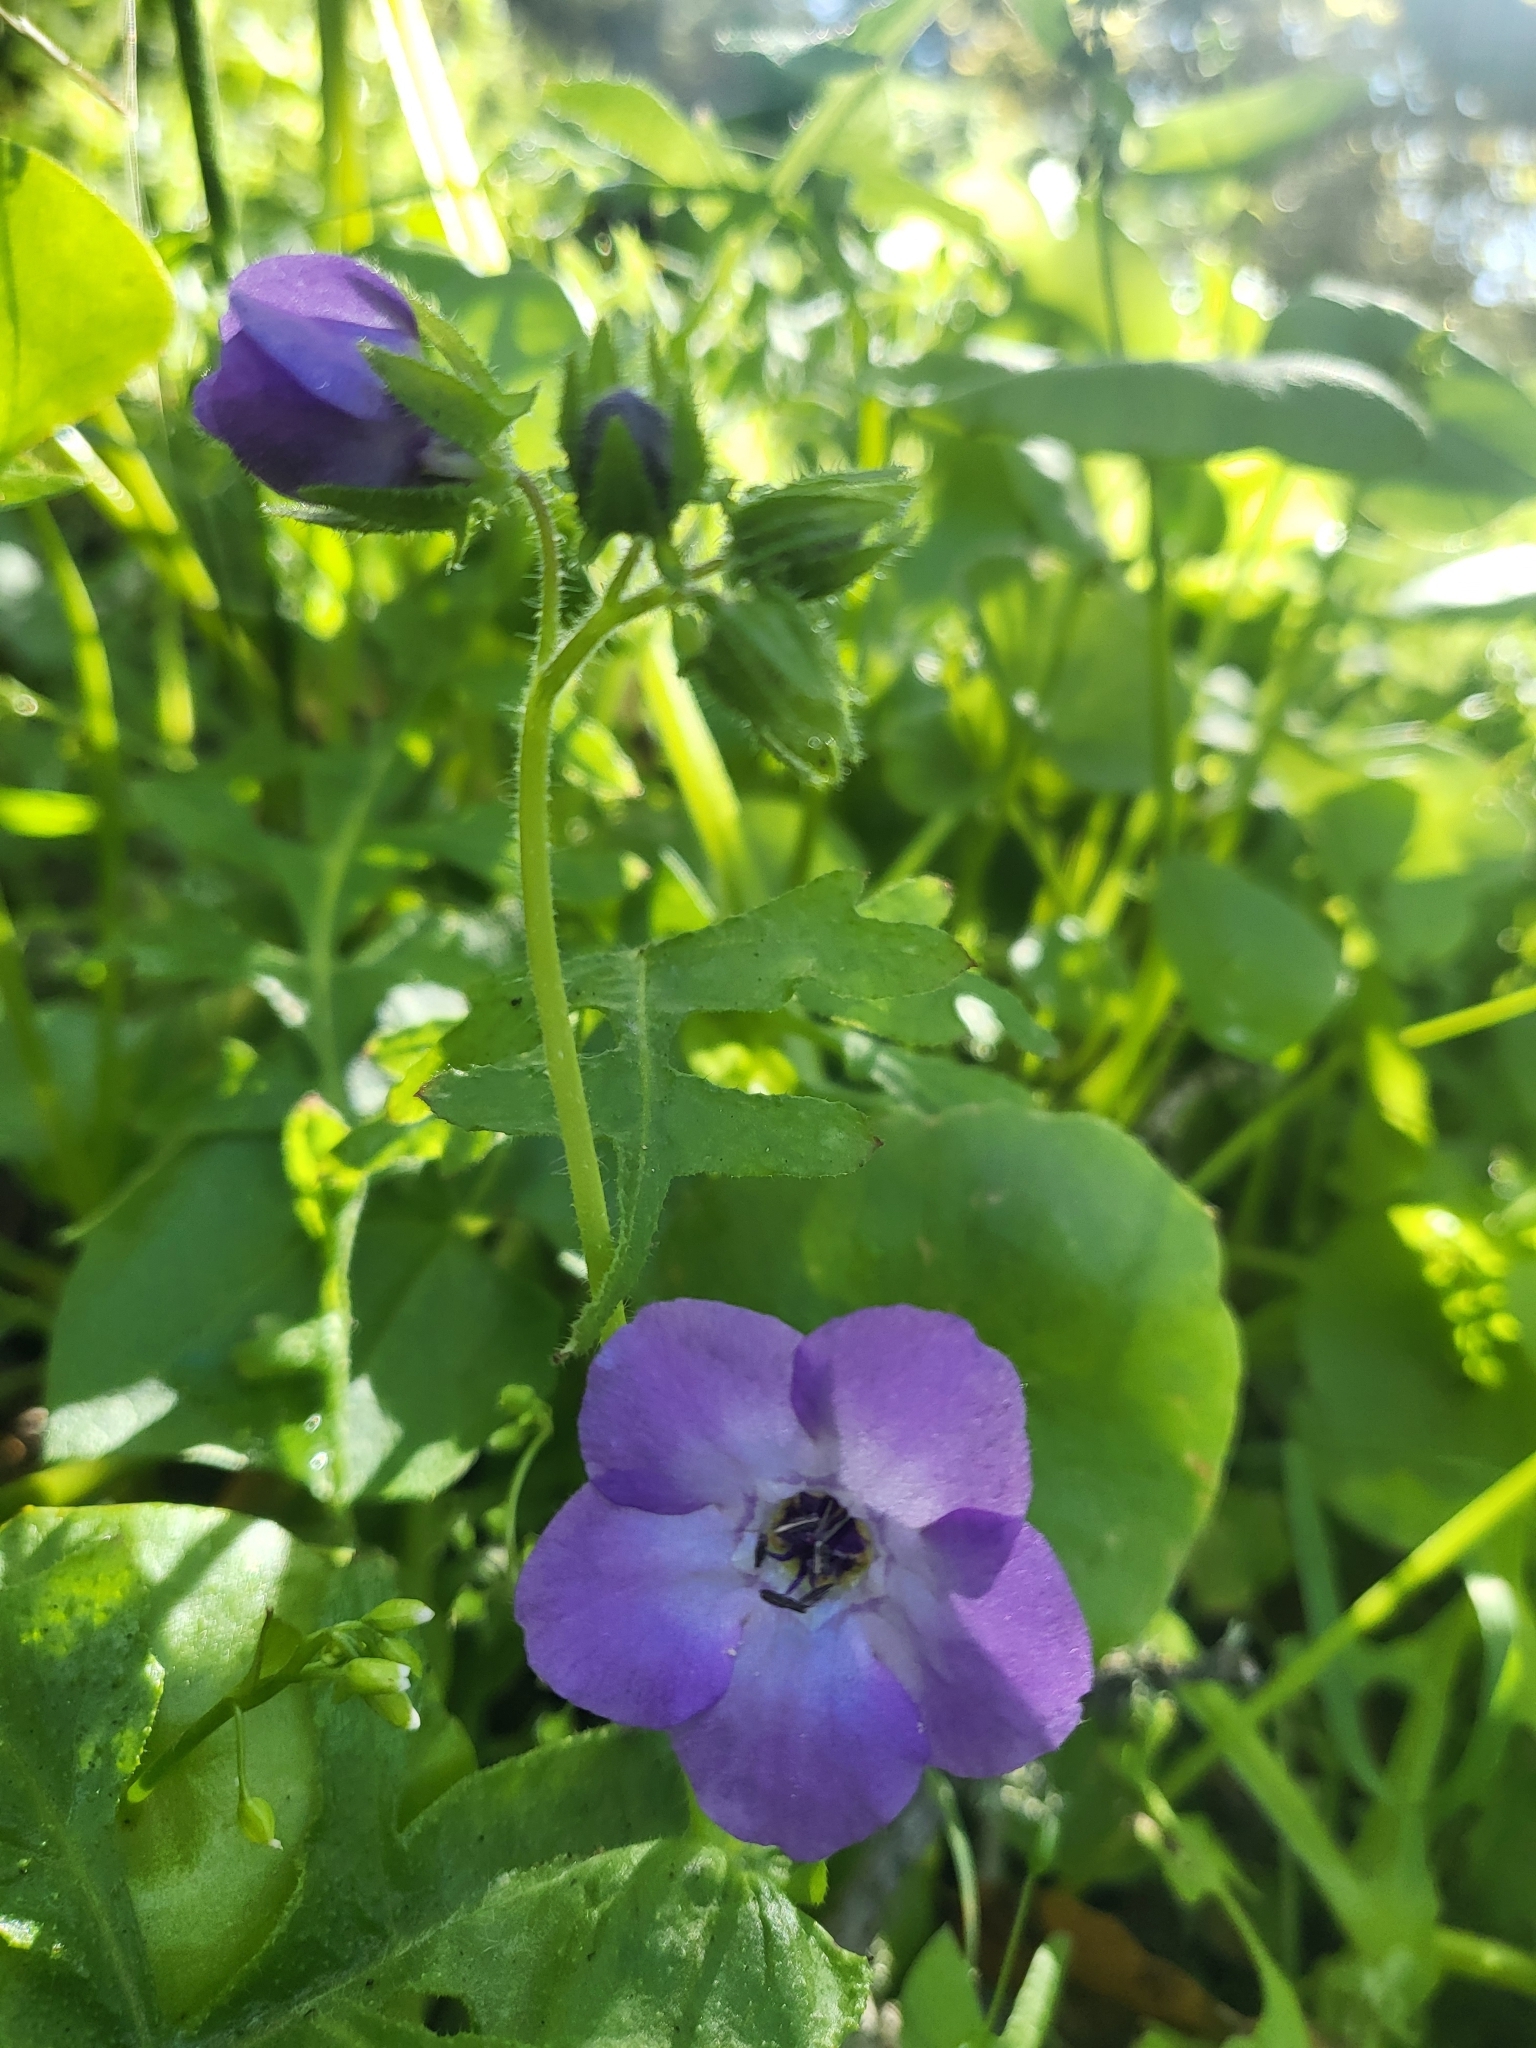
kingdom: Plantae
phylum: Tracheophyta
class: Magnoliopsida
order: Boraginales
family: Hydrophyllaceae
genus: Pholistoma
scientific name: Pholistoma auritum
